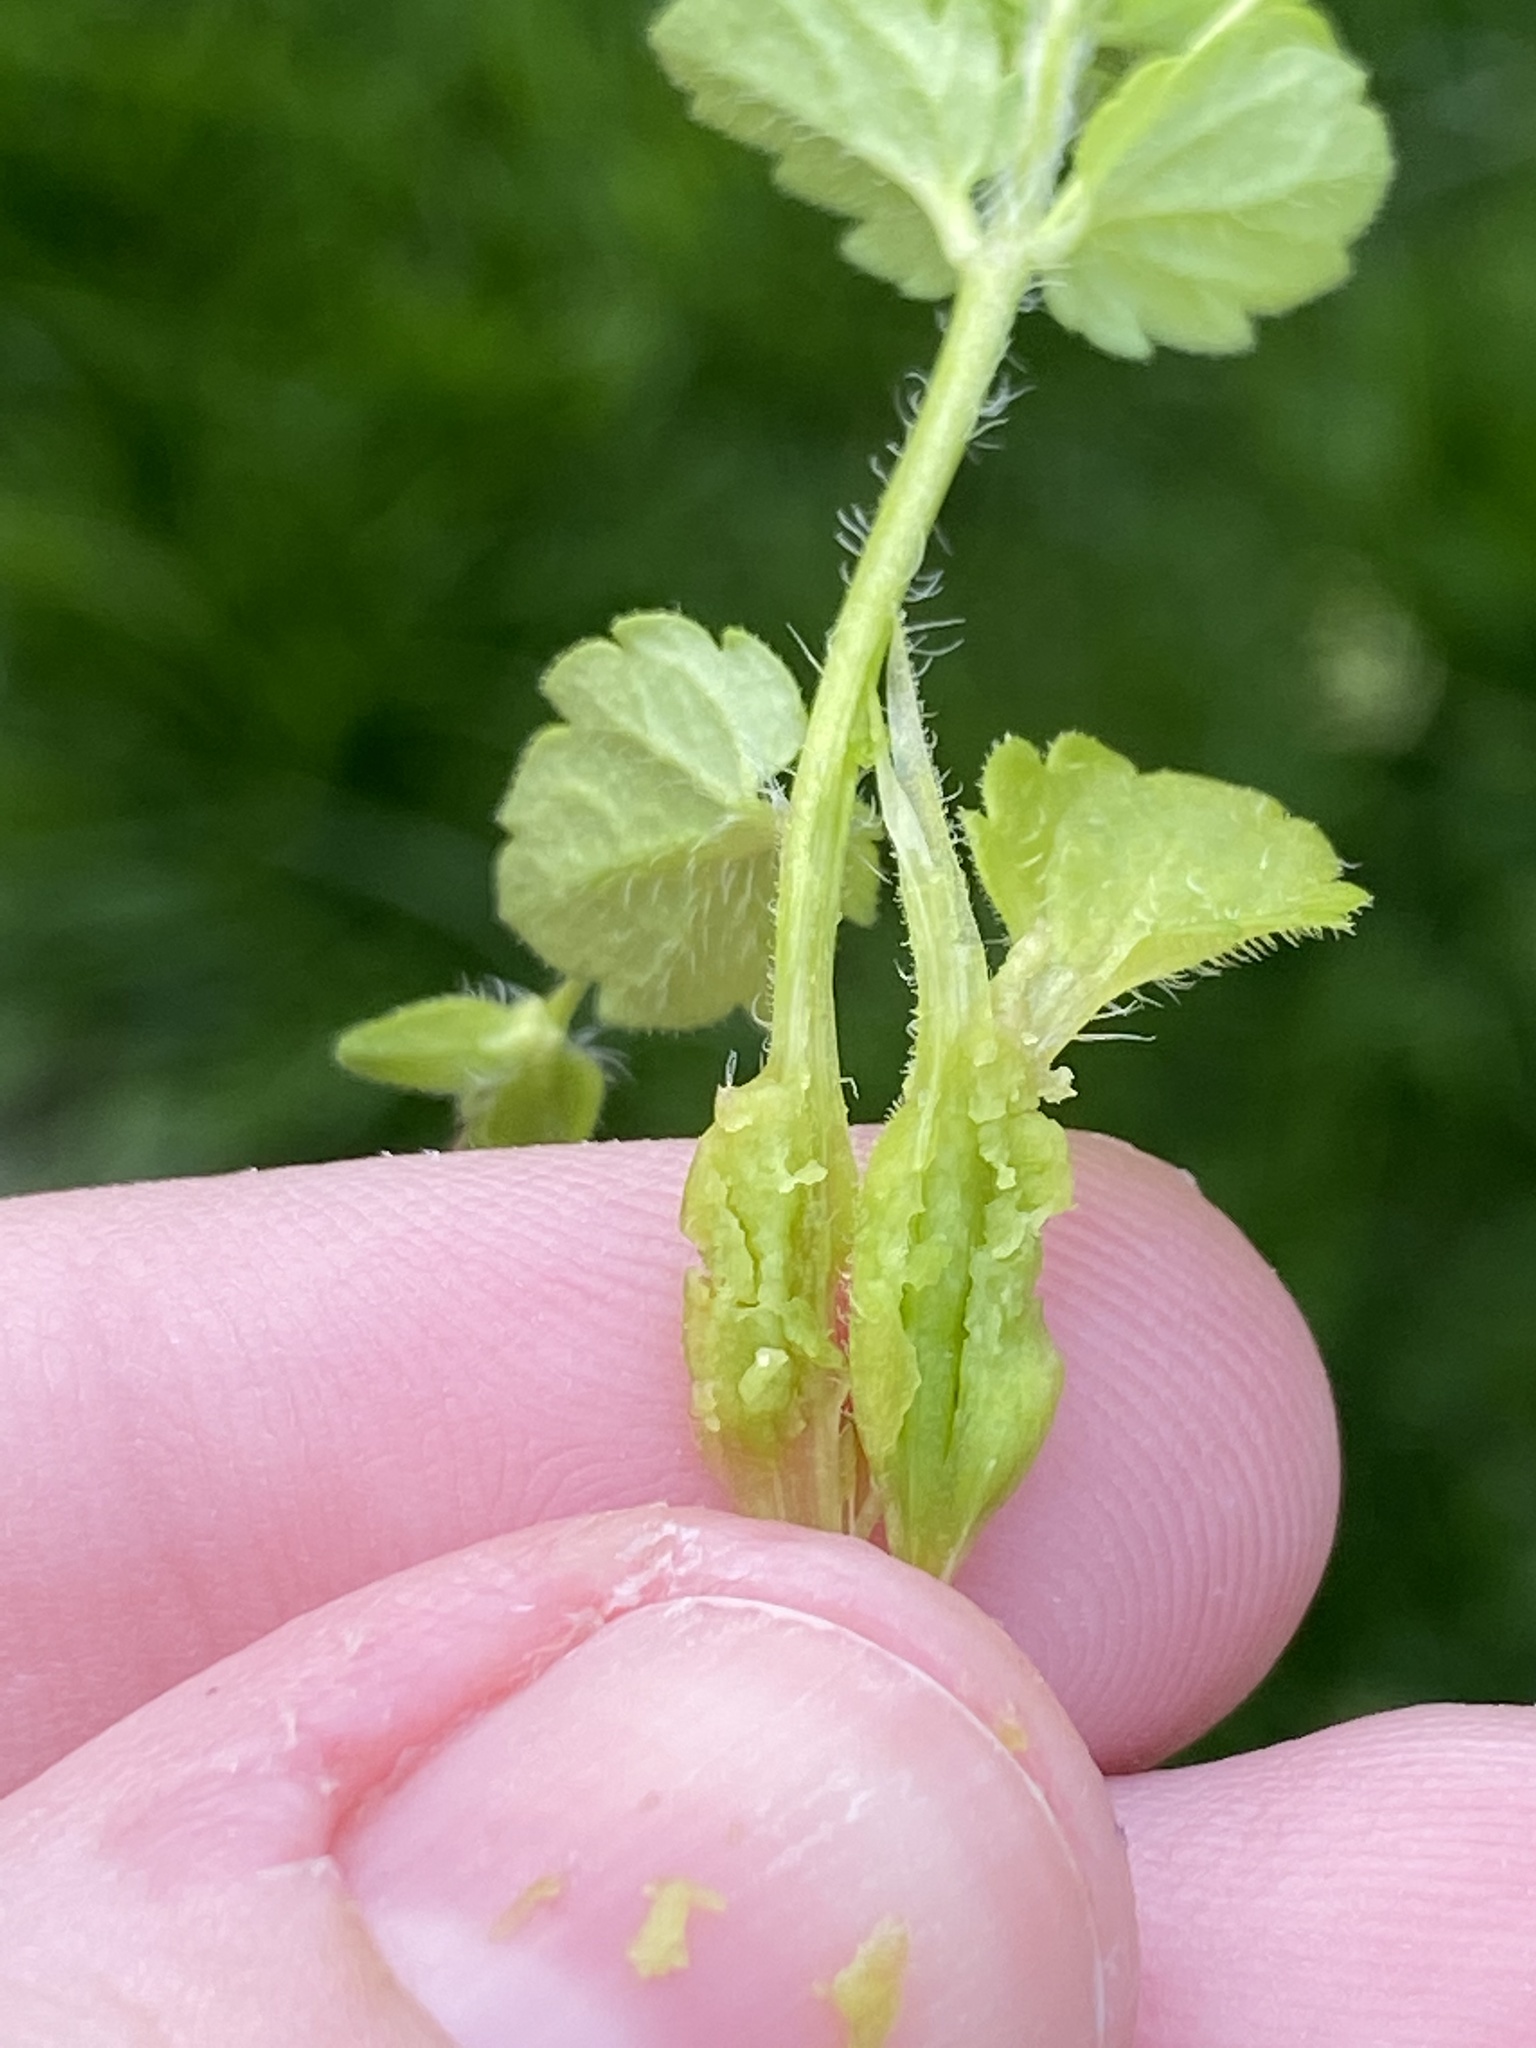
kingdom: Chromista
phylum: Cercozoa
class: Phytomyxea
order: Plasmodiophorida
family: Plasmodiophoridae
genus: Sorosphaerula
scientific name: Sorosphaerula veronicae
